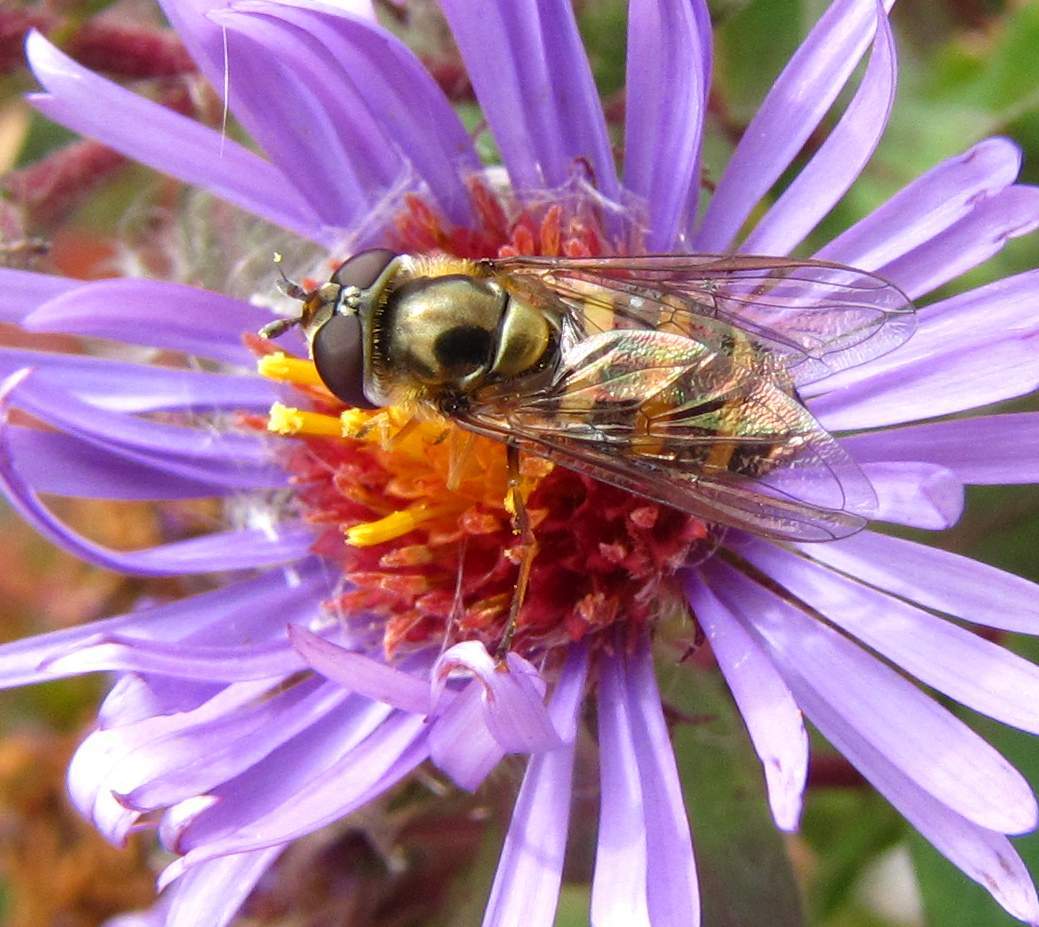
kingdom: Animalia
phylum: Arthropoda
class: Insecta
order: Diptera
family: Syrphidae
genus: Eupeodes
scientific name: Eupeodes
